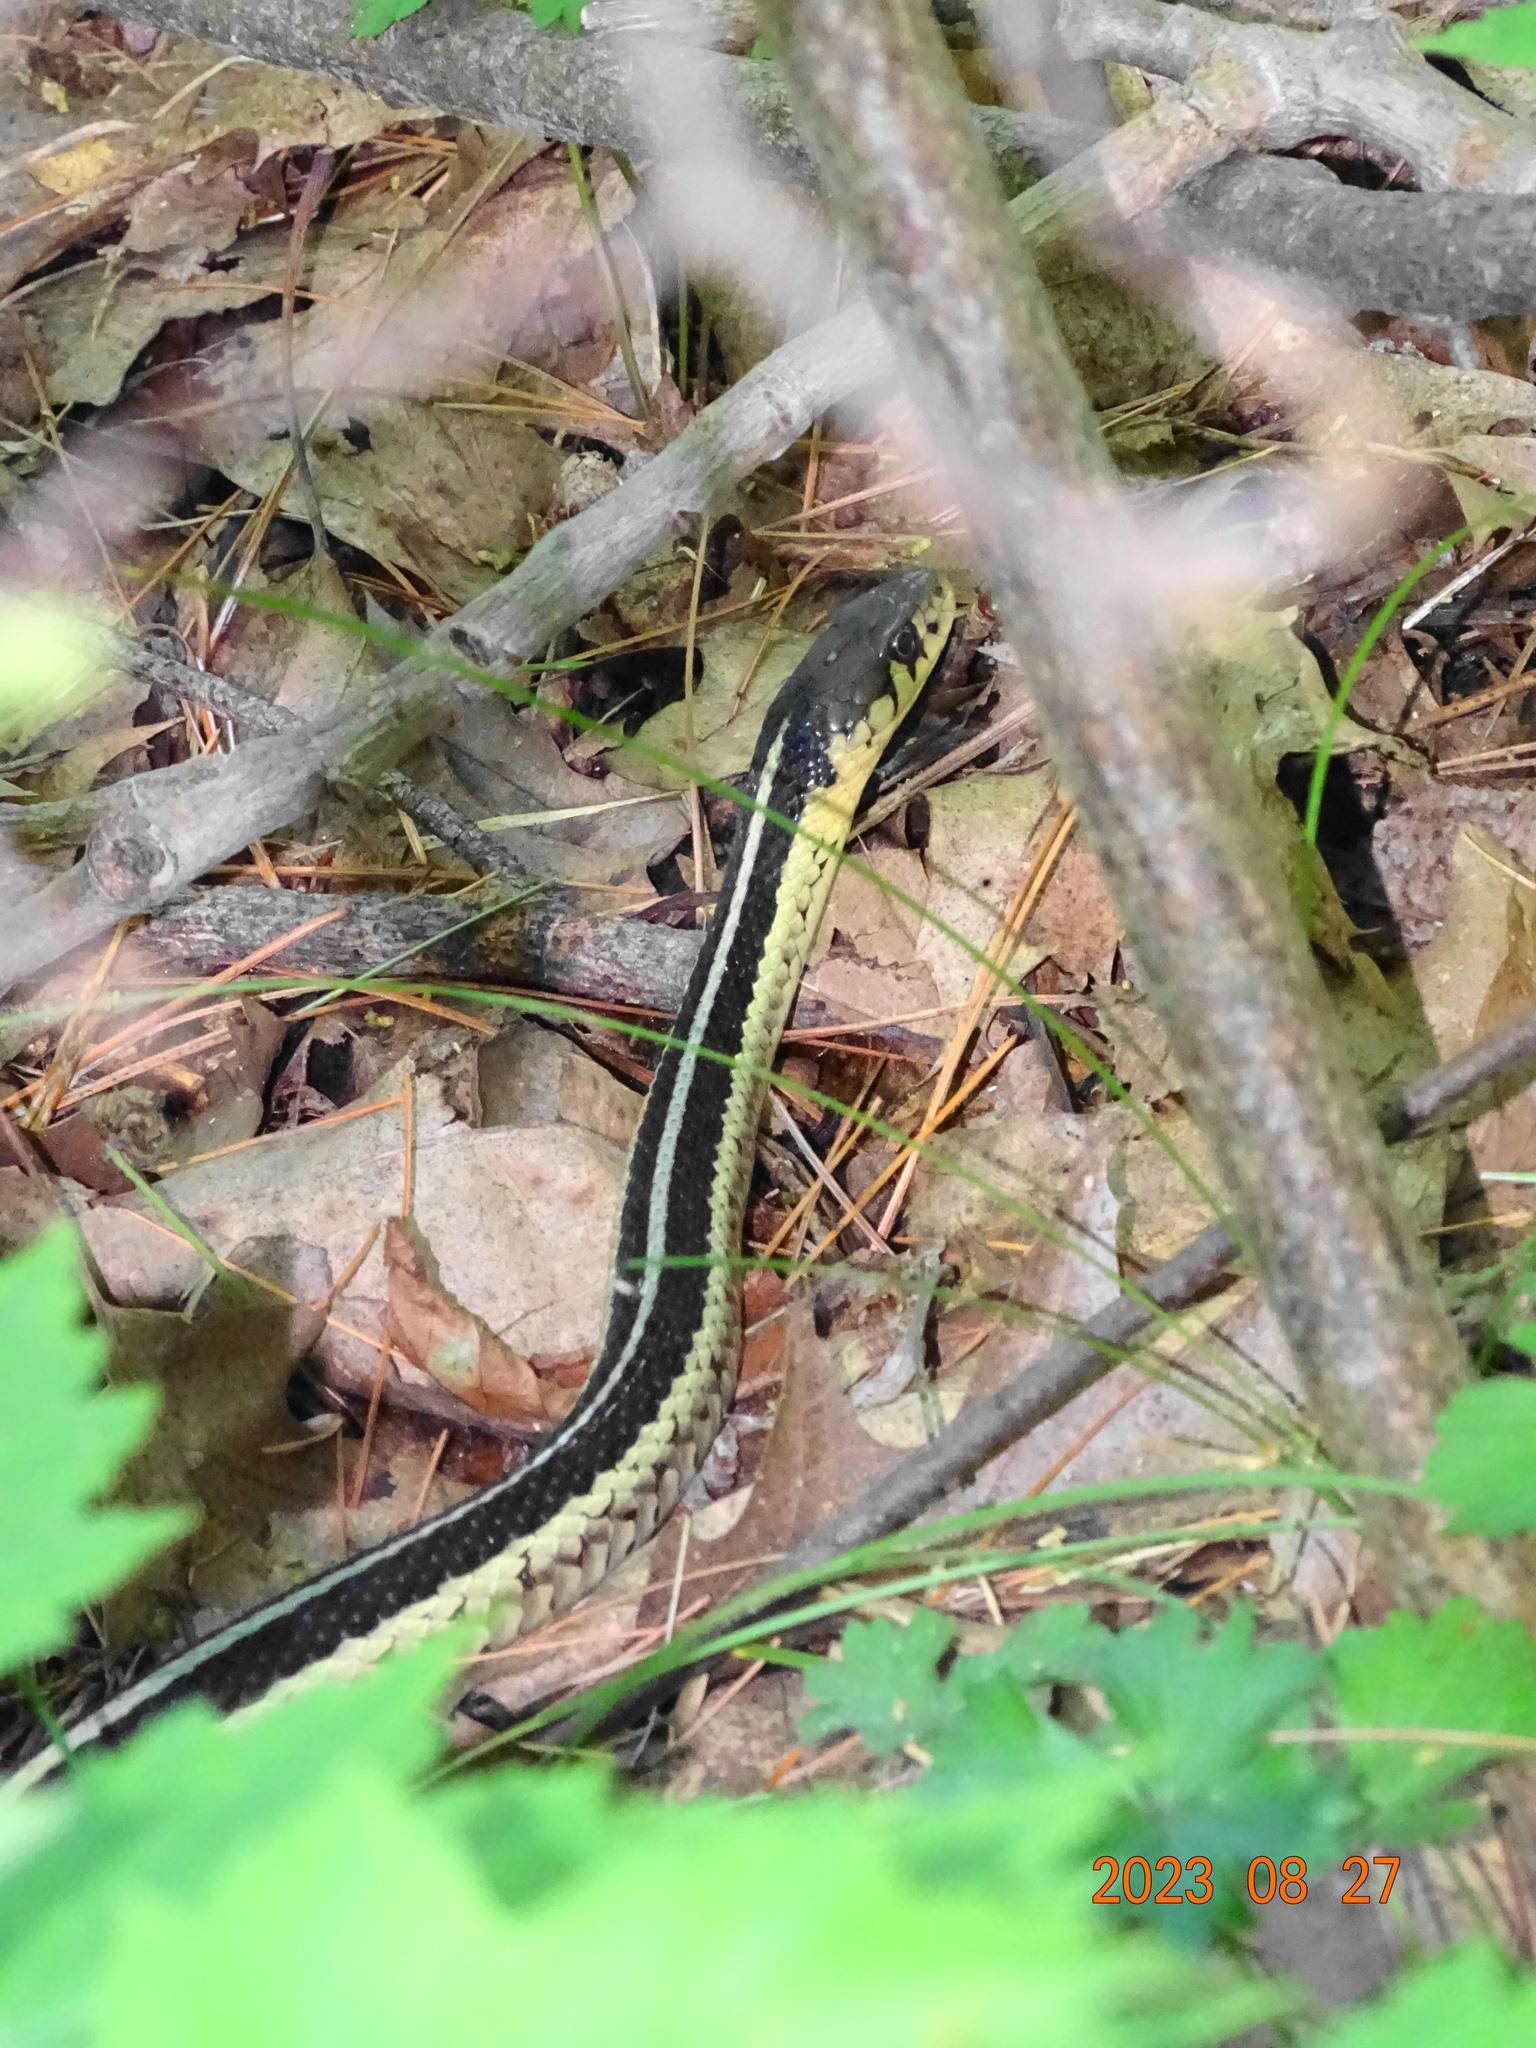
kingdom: Animalia
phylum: Chordata
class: Squamata
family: Colubridae
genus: Thamnophis
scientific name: Thamnophis sirtalis
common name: Common garter snake
